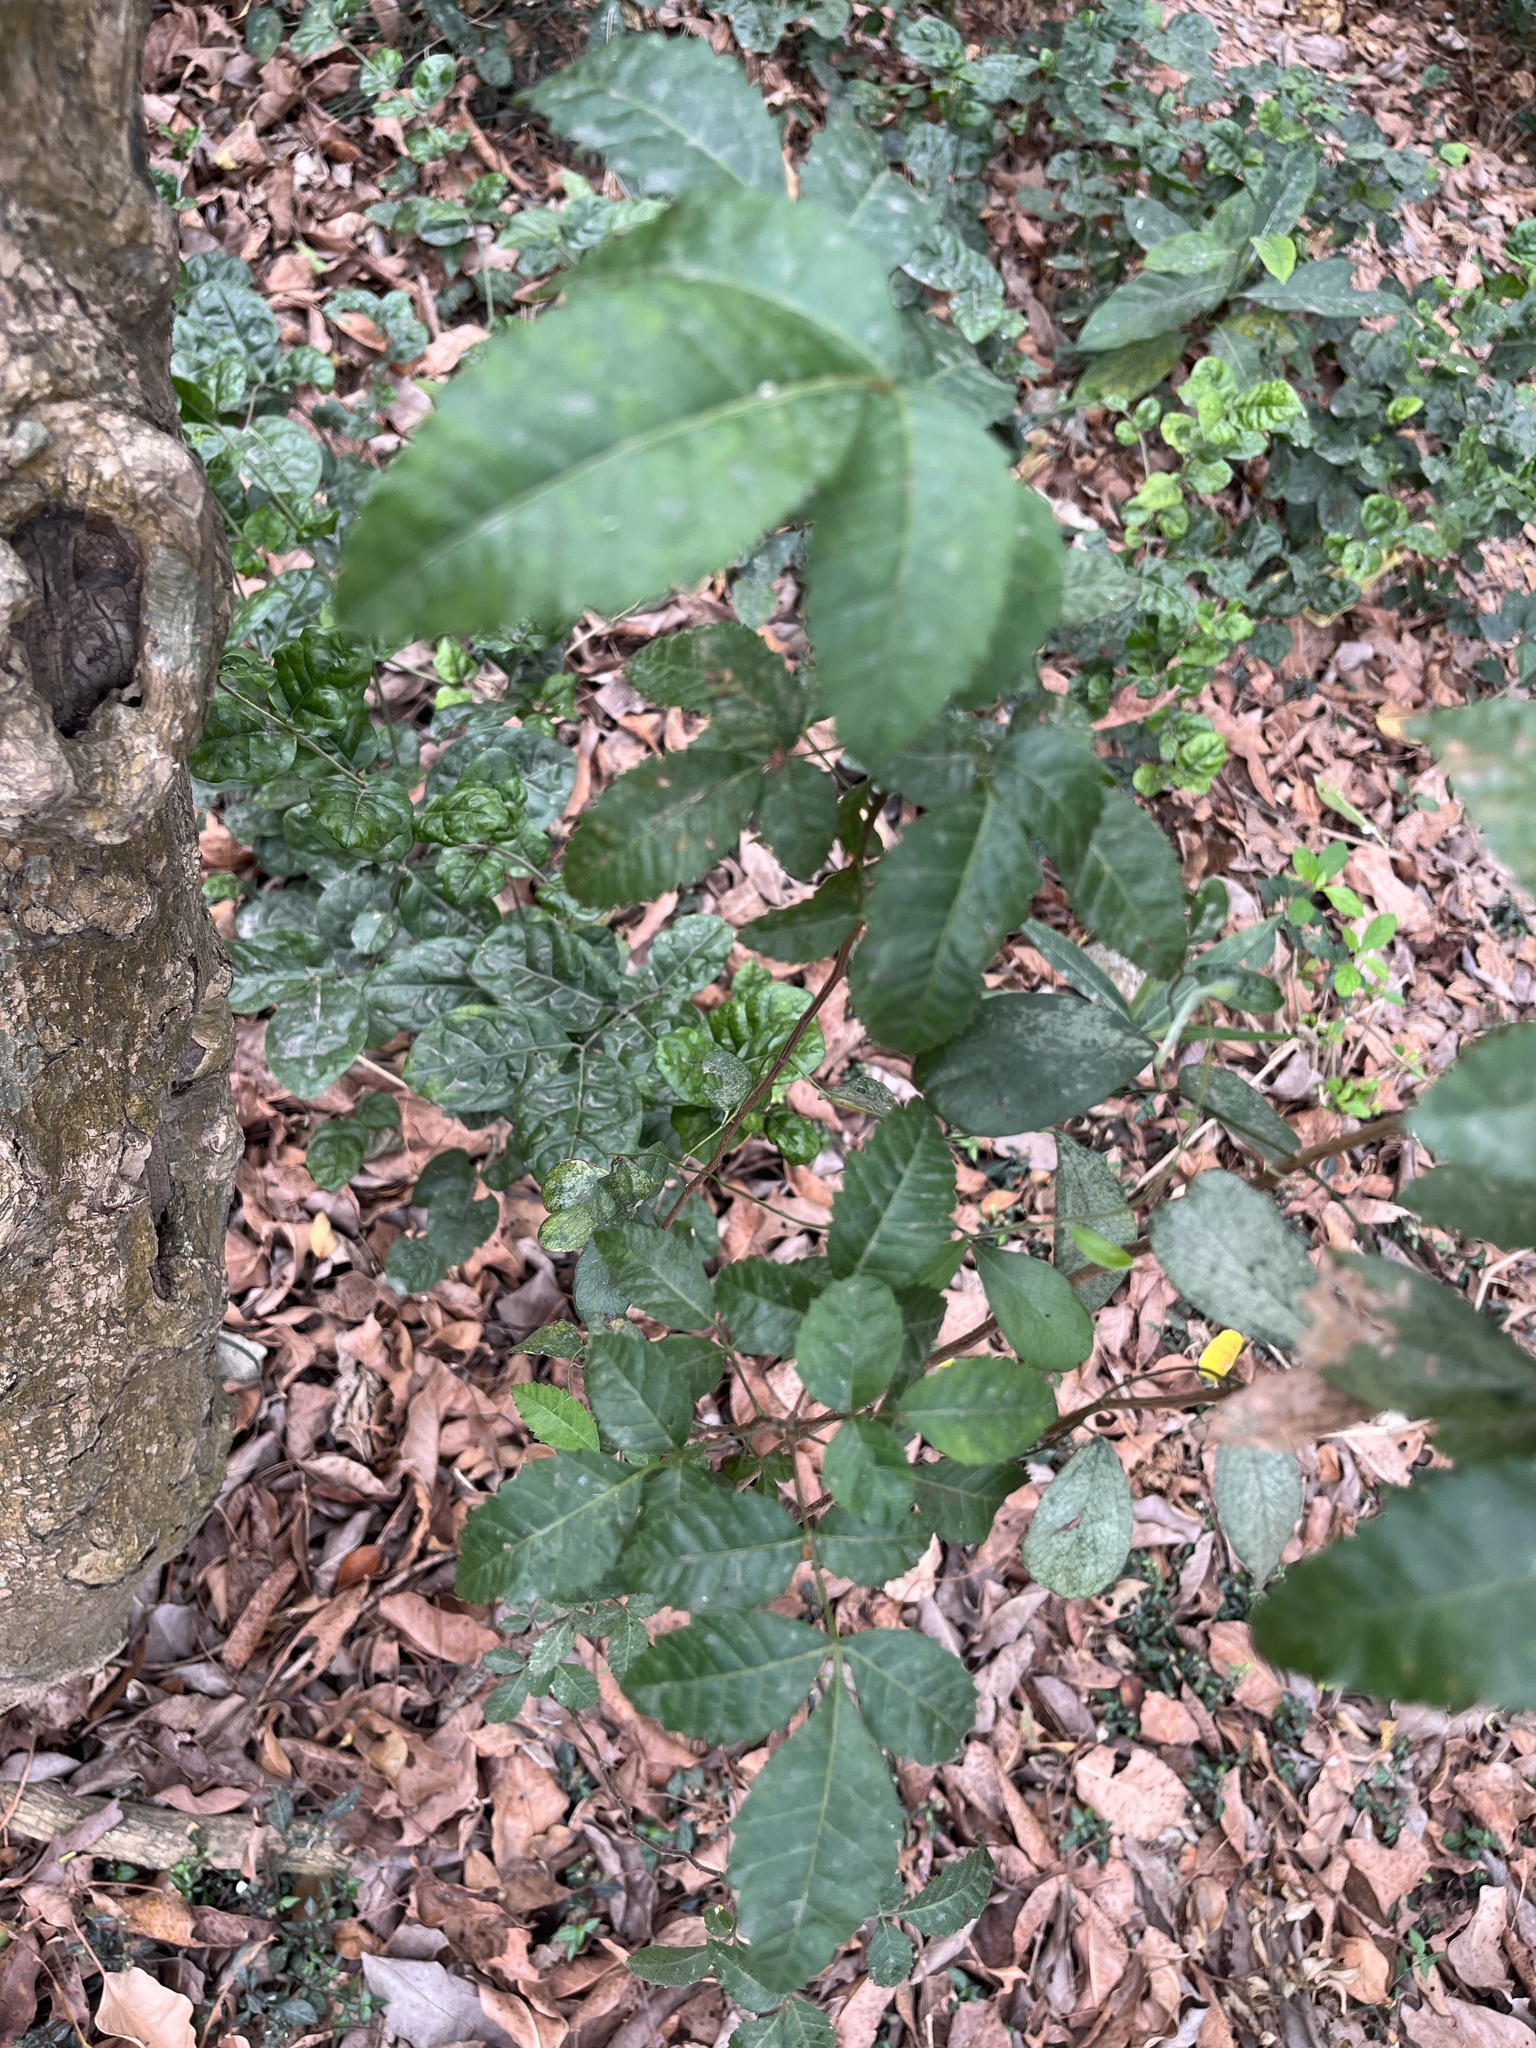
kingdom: Plantae
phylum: Tracheophyta
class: Magnoliopsida
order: Sapindales
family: Anacardiaceae
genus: Schinus
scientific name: Schinus terebinthifolia
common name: Brazilian peppertree
